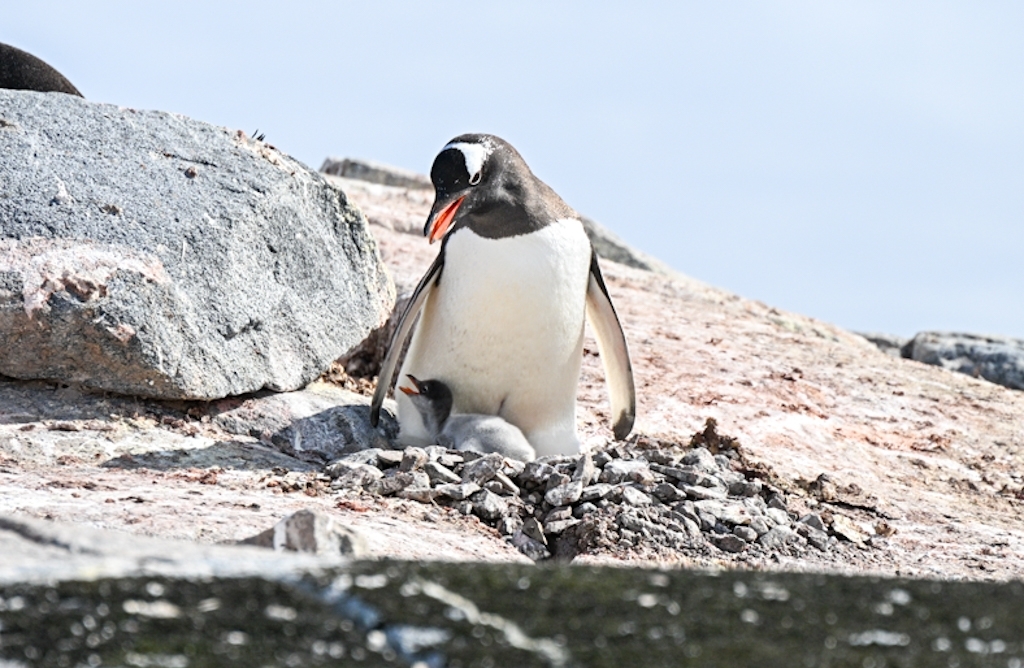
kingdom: Animalia
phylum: Chordata
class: Aves
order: Sphenisciformes
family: Spheniscidae
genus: Pygoscelis
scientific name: Pygoscelis papua
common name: Gentoo penguin
